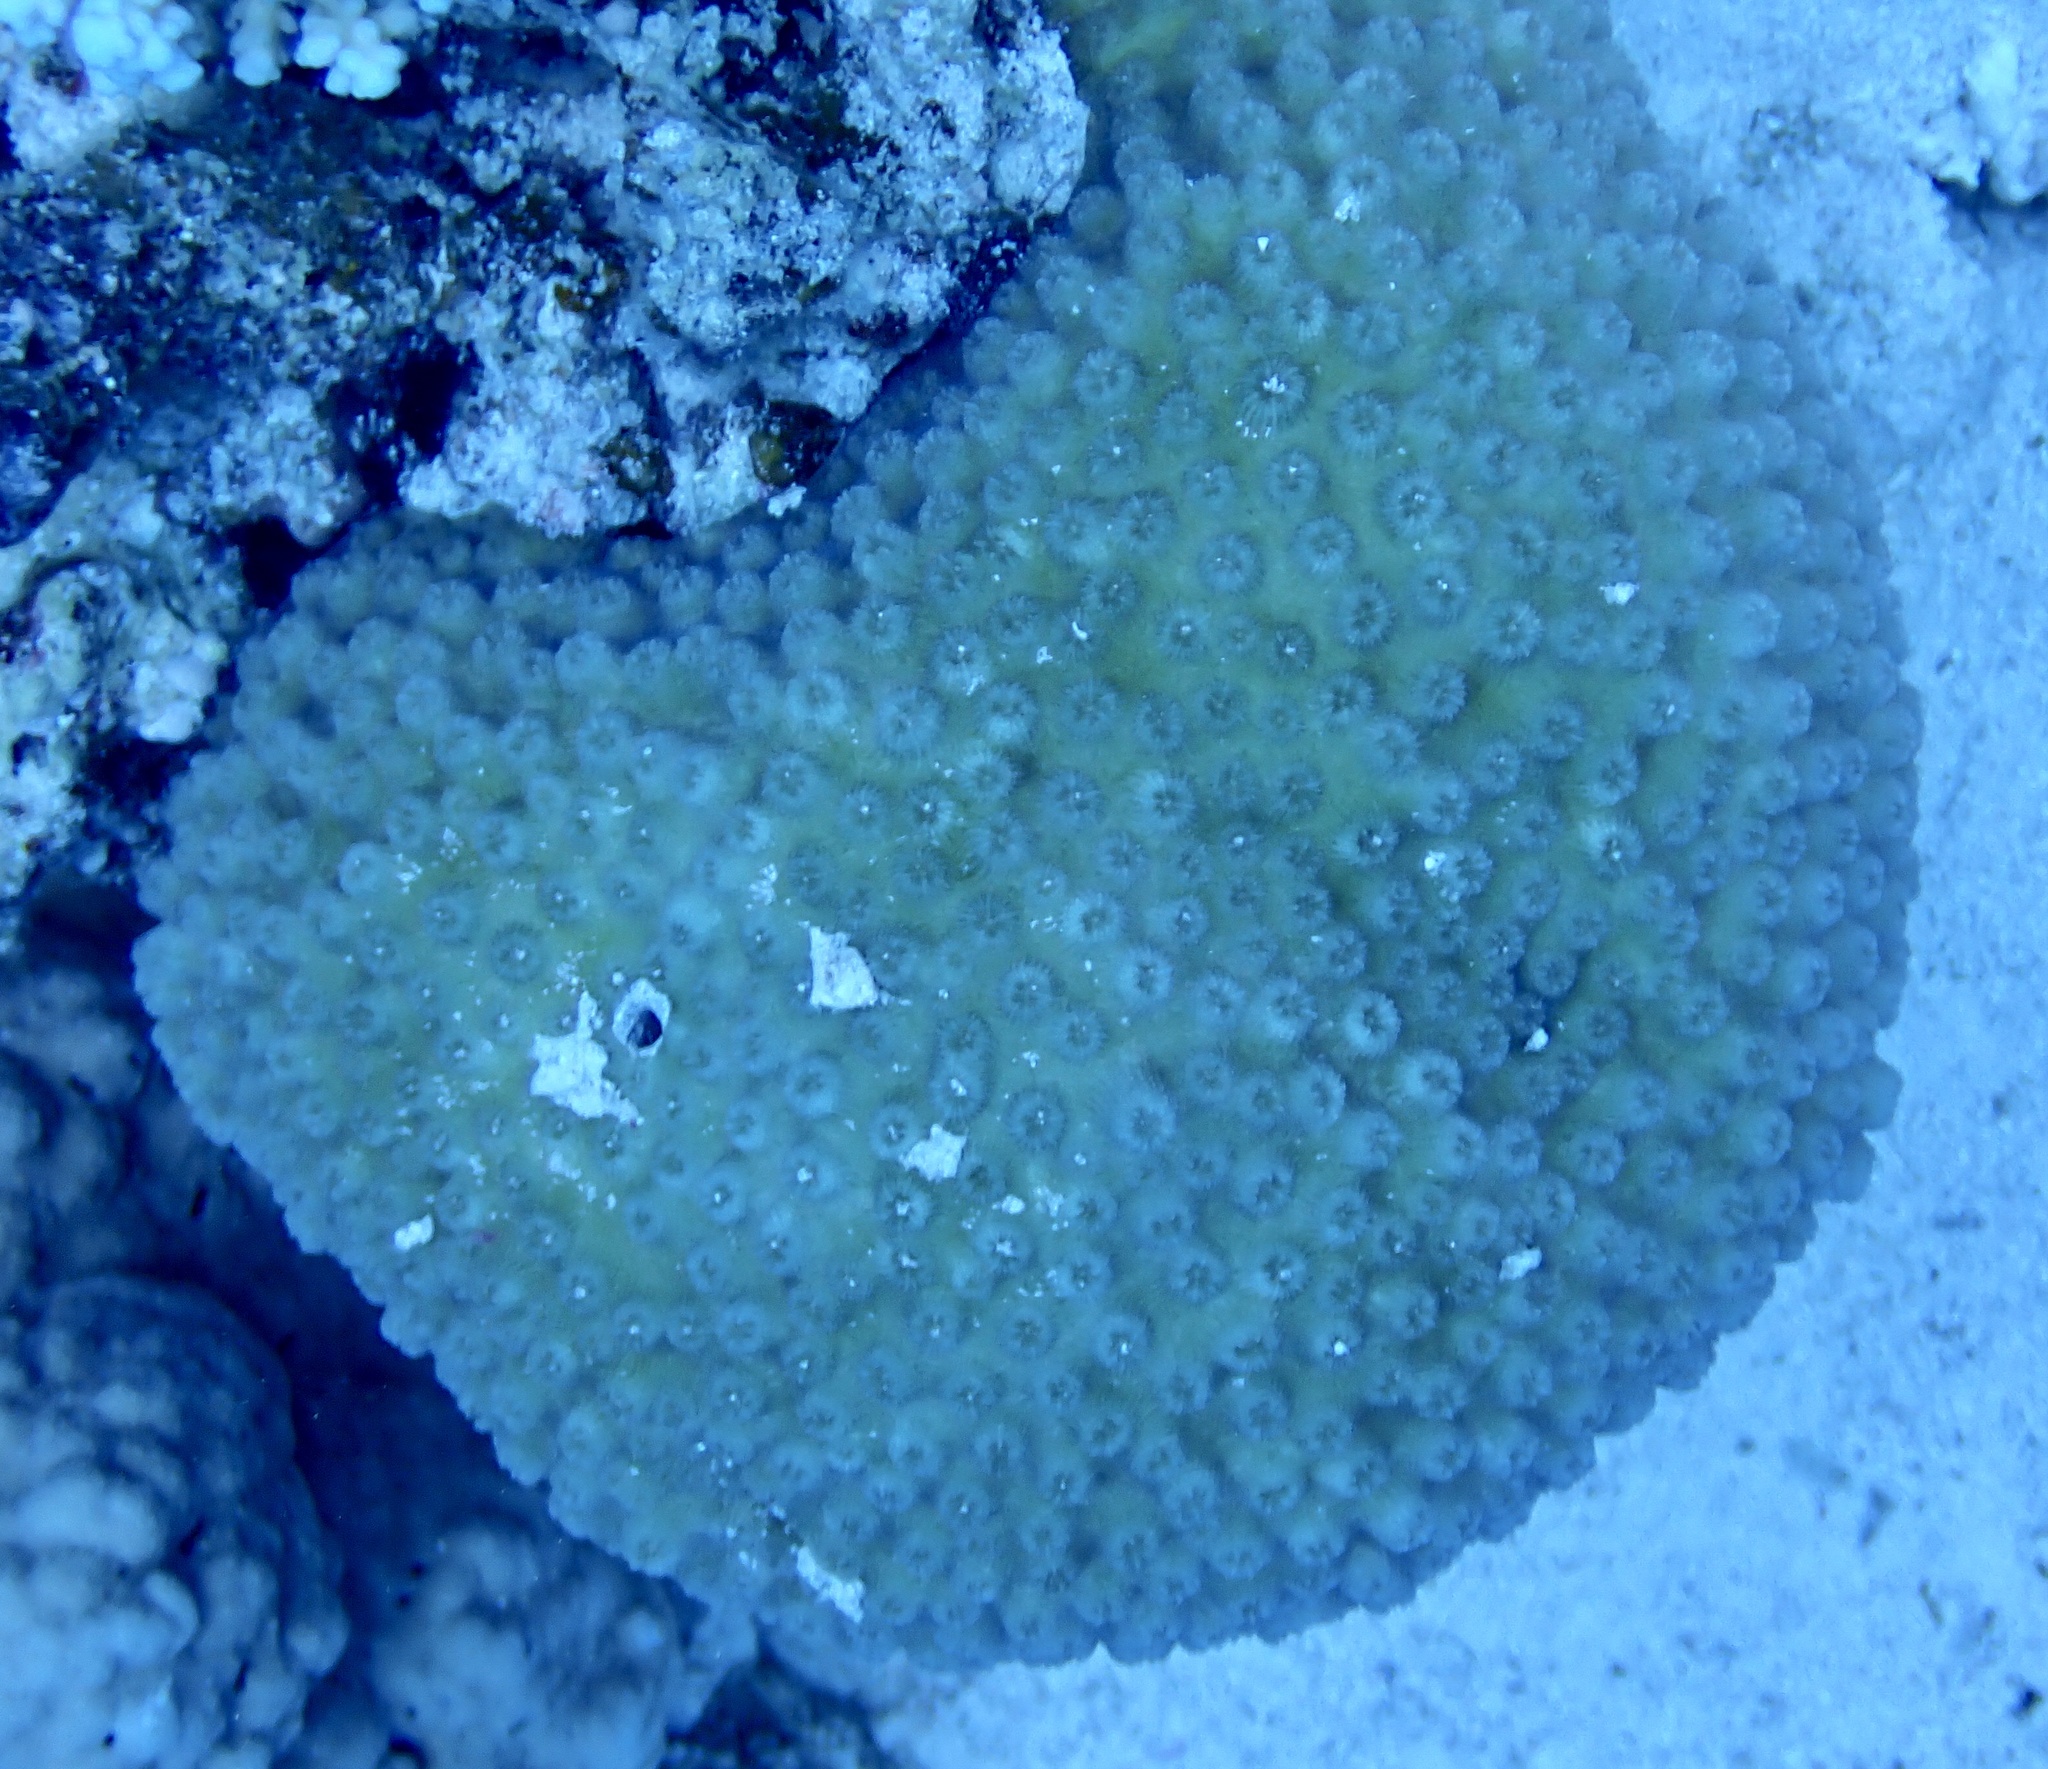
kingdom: Animalia
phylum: Cnidaria
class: Anthozoa
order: Scleractinia
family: Merulinidae
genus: Echinopora
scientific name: Echinopora forskaliana
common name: Hedgehog coral
